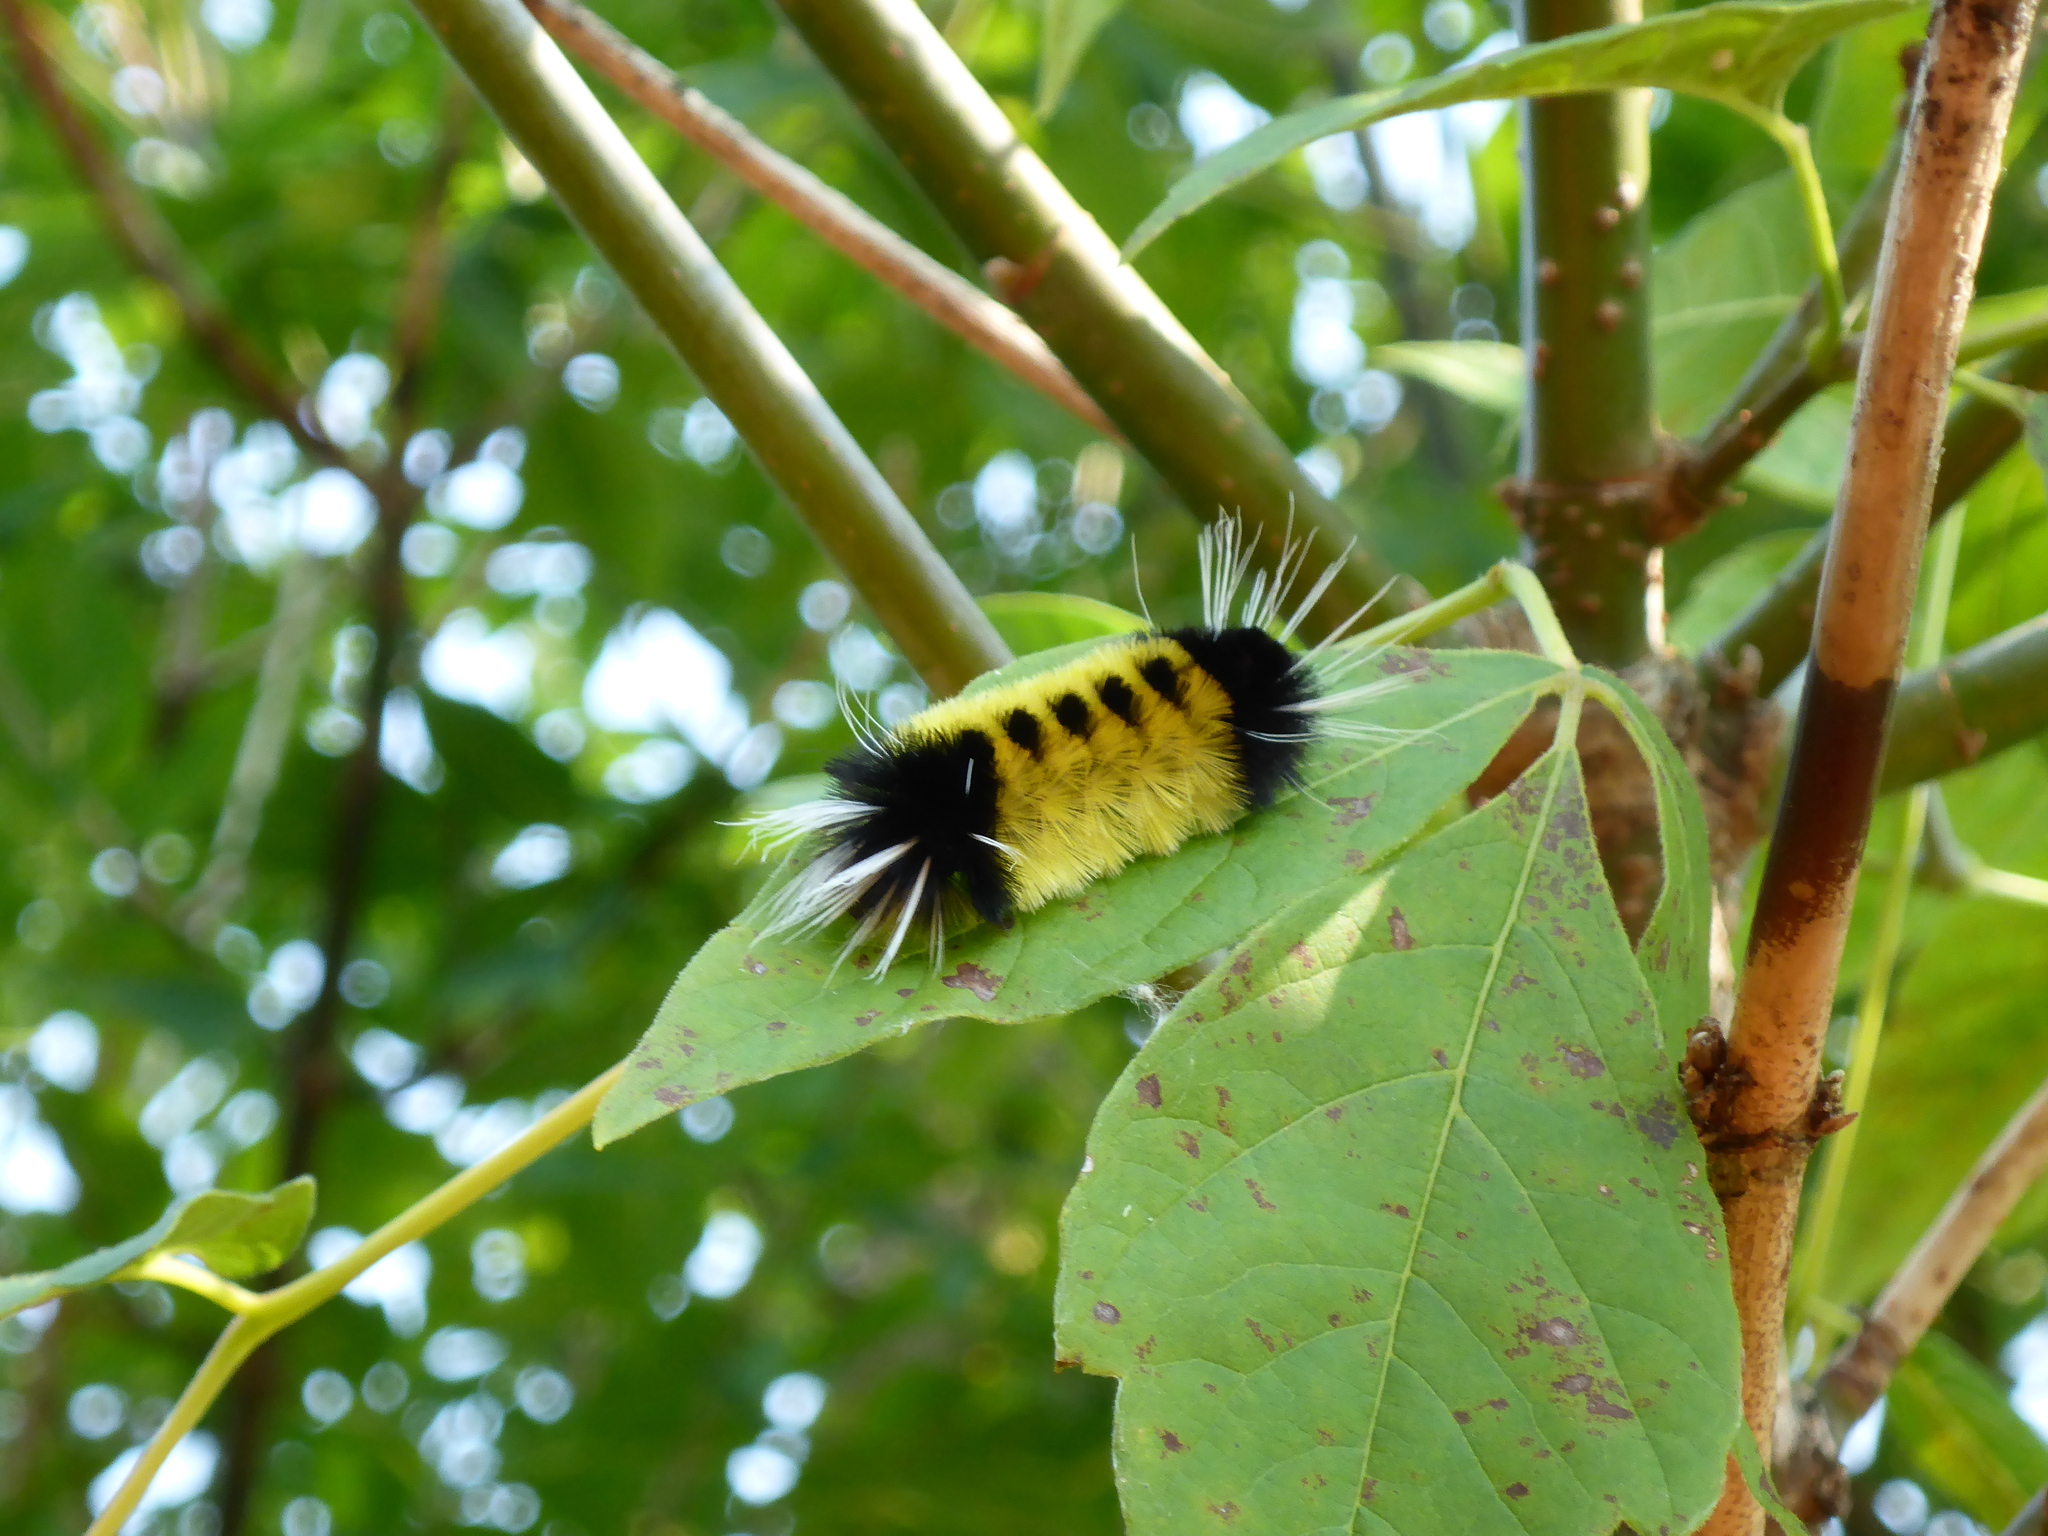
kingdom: Animalia
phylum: Arthropoda
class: Insecta
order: Lepidoptera
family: Erebidae
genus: Lophocampa
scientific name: Lophocampa maculata
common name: Spotted tussock moth
